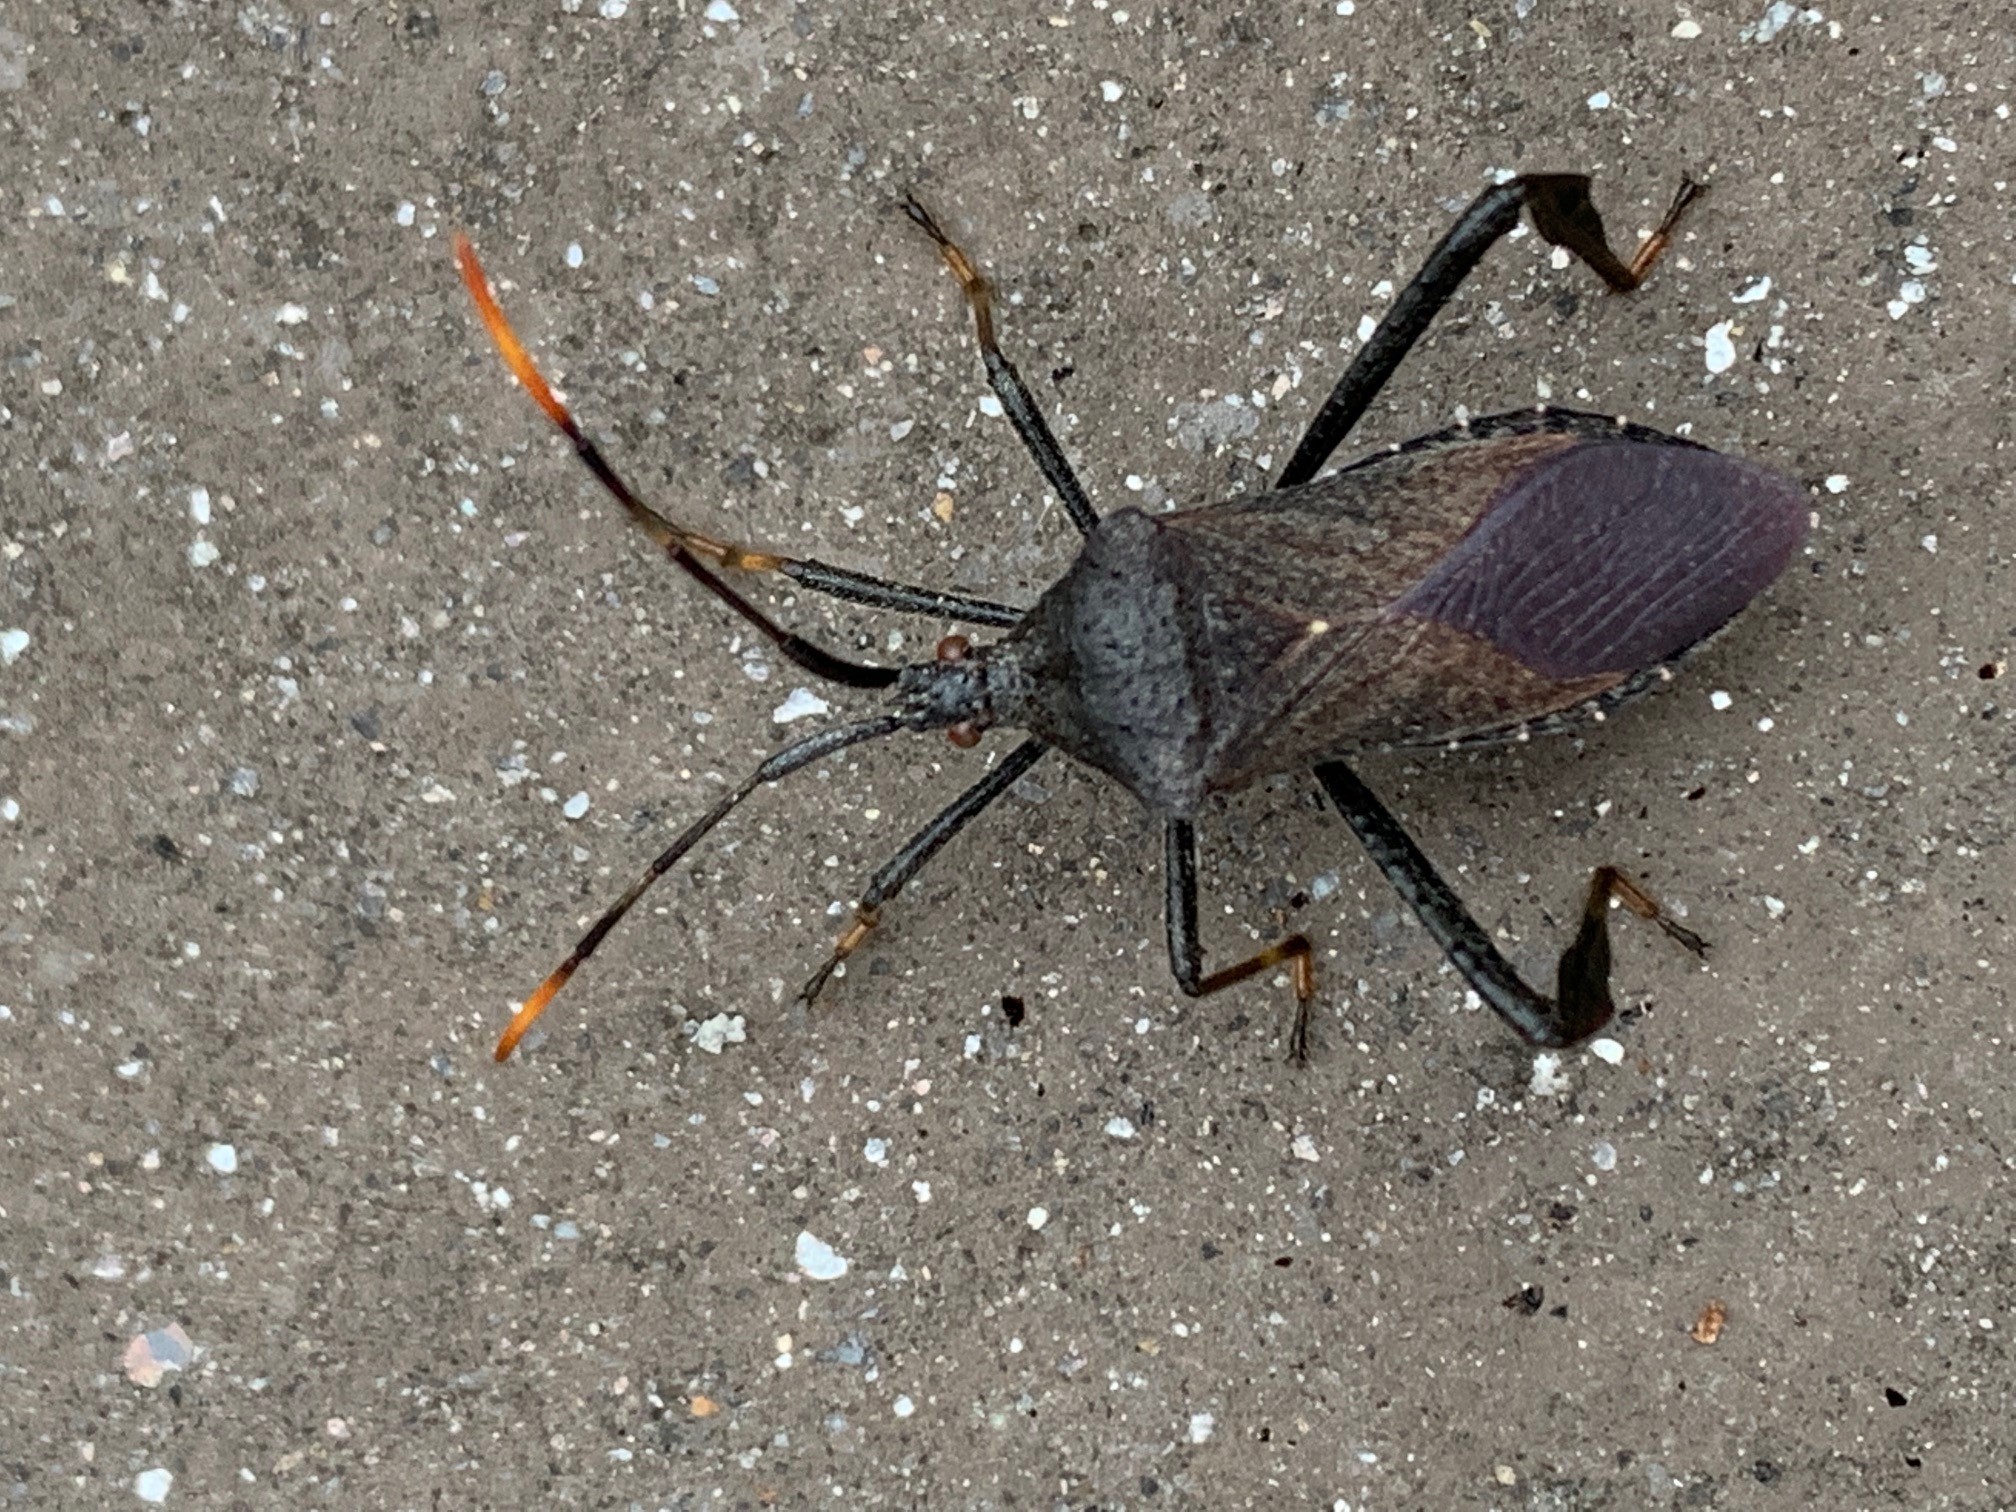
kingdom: Animalia
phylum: Arthropoda
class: Insecta
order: Hemiptera
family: Coreidae
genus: Acanthocephala
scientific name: Acanthocephala terminalis
